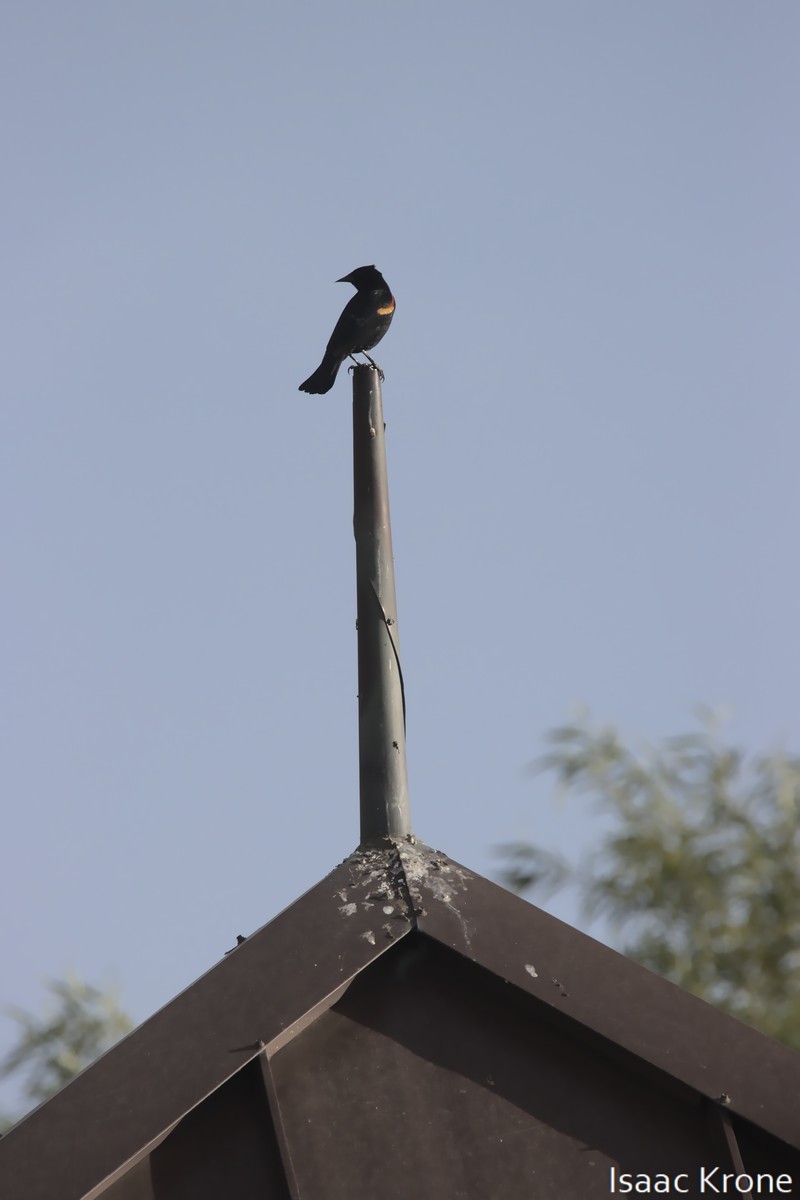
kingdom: Animalia
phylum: Chordata
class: Aves
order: Passeriformes
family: Icteridae
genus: Agelaius
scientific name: Agelaius phoeniceus
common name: Red-winged blackbird
